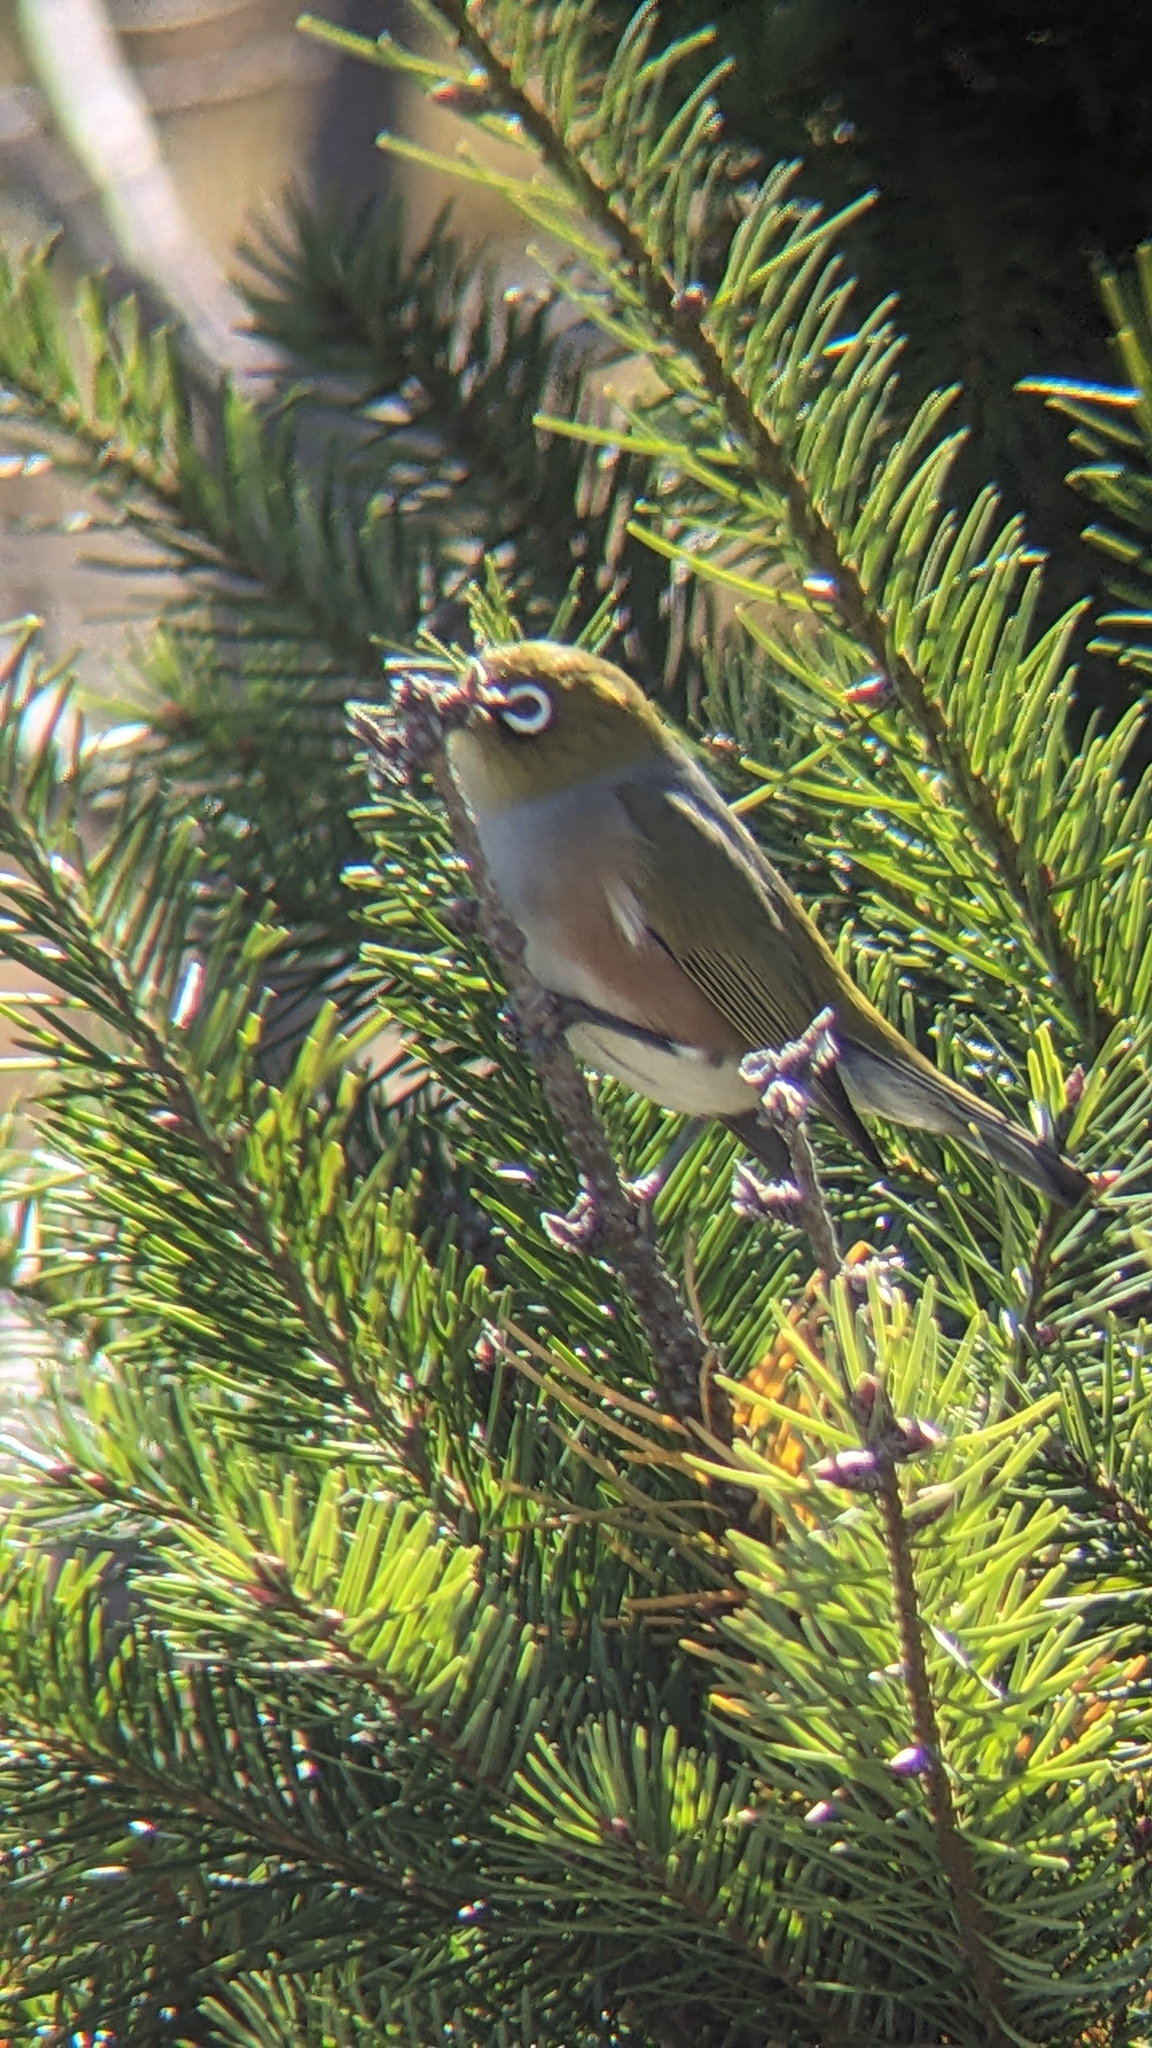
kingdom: Animalia
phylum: Chordata
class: Aves
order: Passeriformes
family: Zosteropidae
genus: Zosterops
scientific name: Zosterops lateralis
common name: Silvereye
